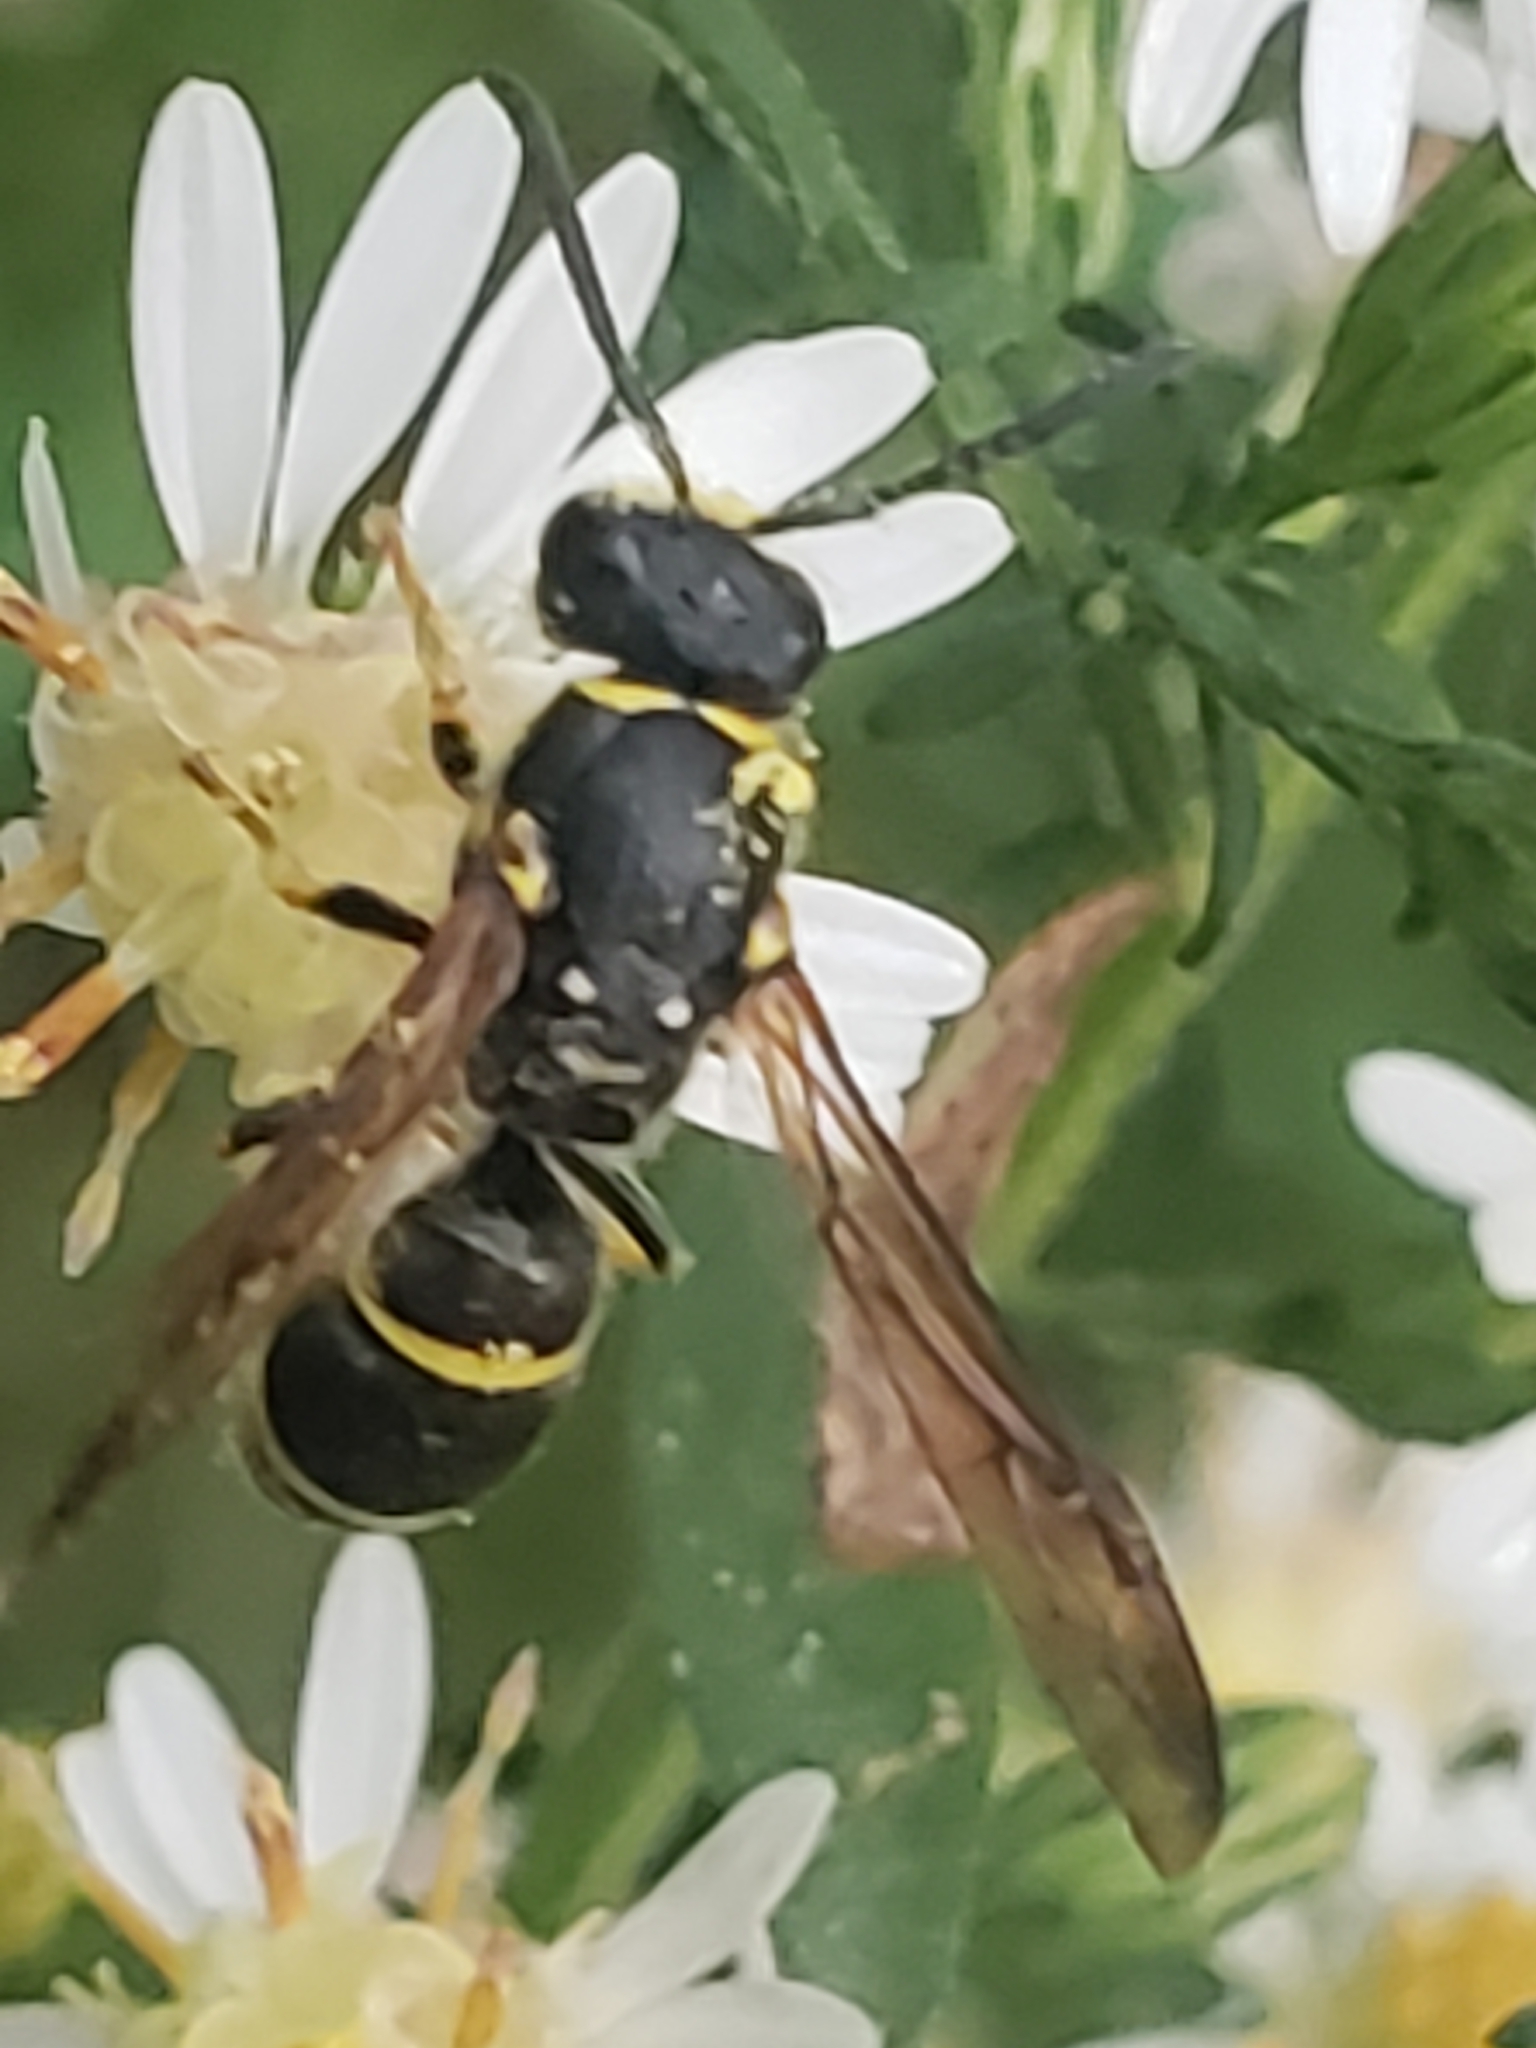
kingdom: Animalia
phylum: Arthropoda
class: Insecta
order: Hymenoptera
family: Vespidae
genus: Ancistrocerus
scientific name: Ancistrocerus adiabatus
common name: Bramble mason wasp
